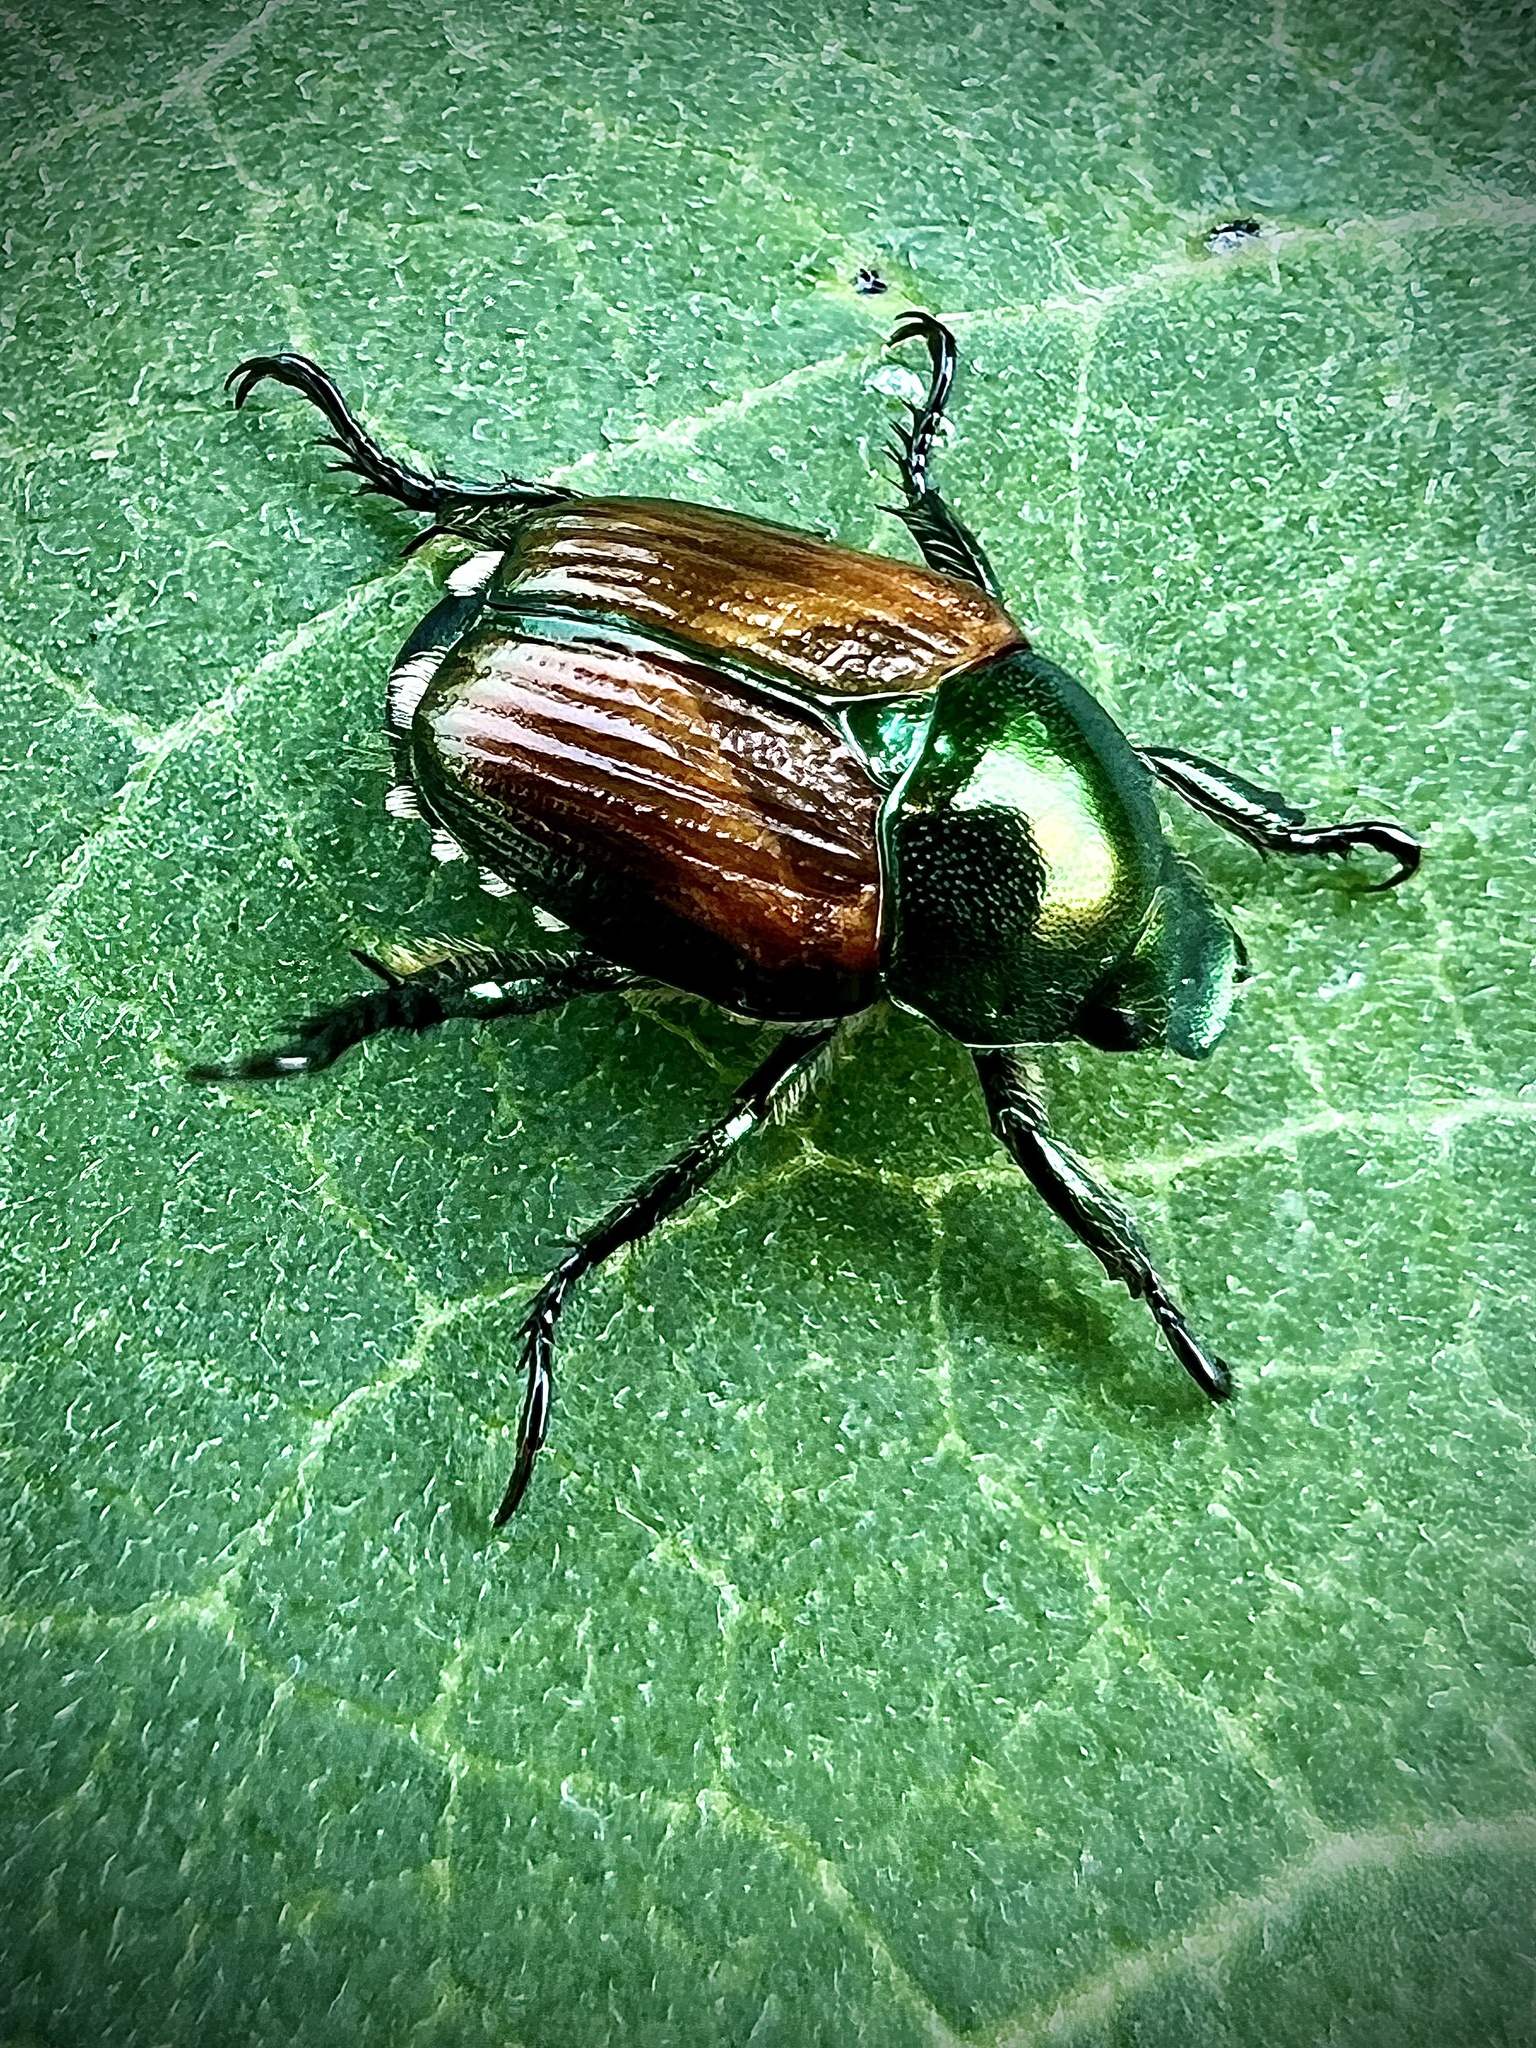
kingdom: Animalia
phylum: Arthropoda
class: Insecta
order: Coleoptera
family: Scarabaeidae
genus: Popillia
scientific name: Popillia japonica
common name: Japanese beetle
